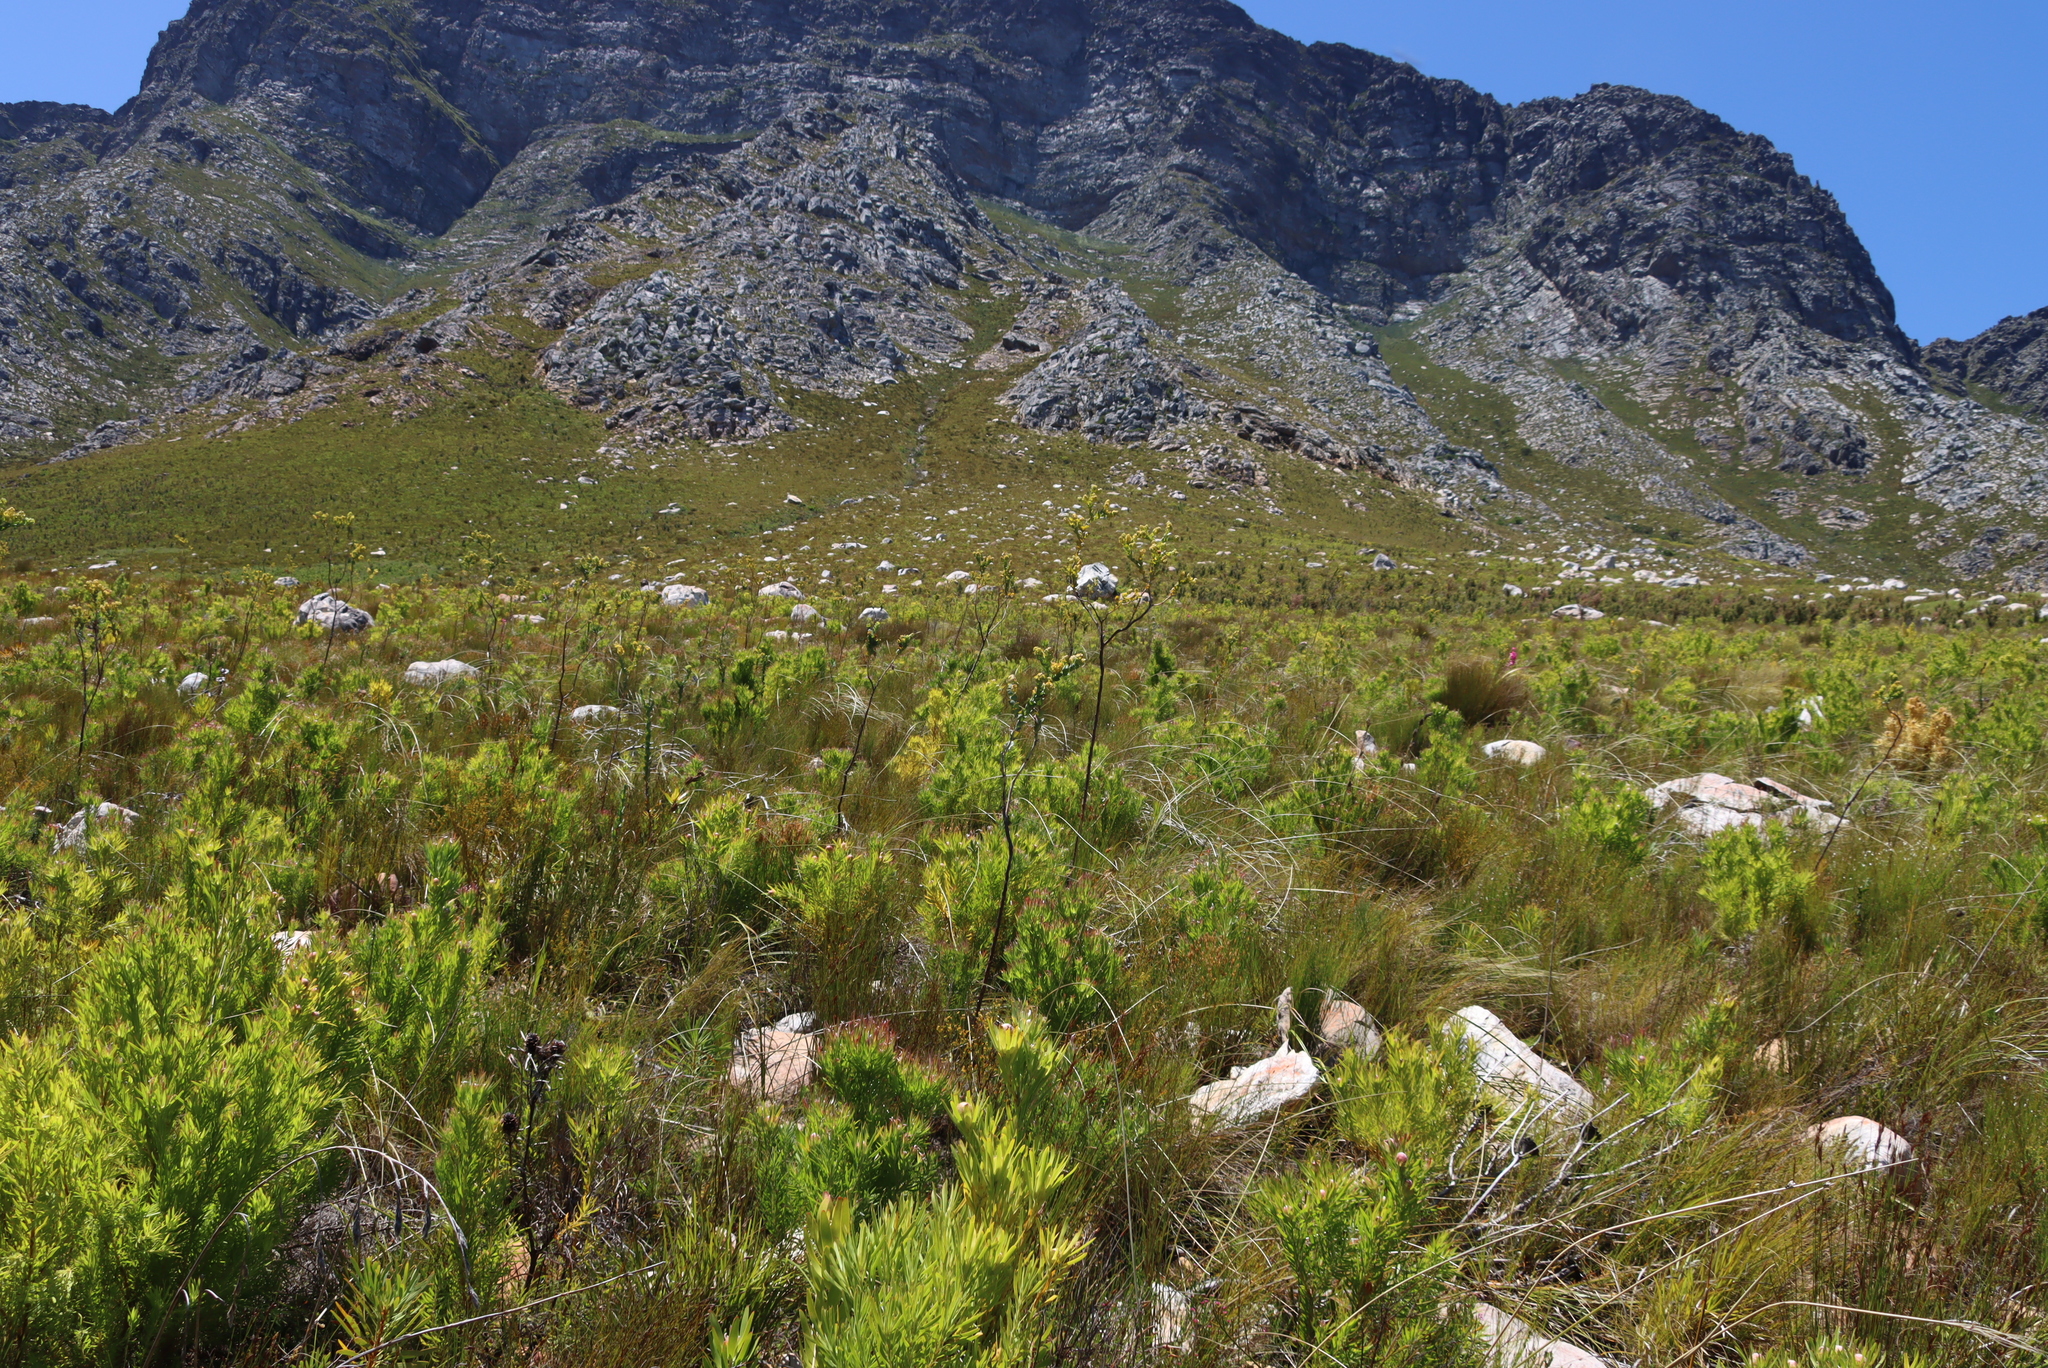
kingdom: Plantae
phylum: Tracheophyta
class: Magnoliopsida
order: Proteales
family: Proteaceae
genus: Leucadendron
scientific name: Leucadendron xanthoconus
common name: Sickle-leaf conebush
